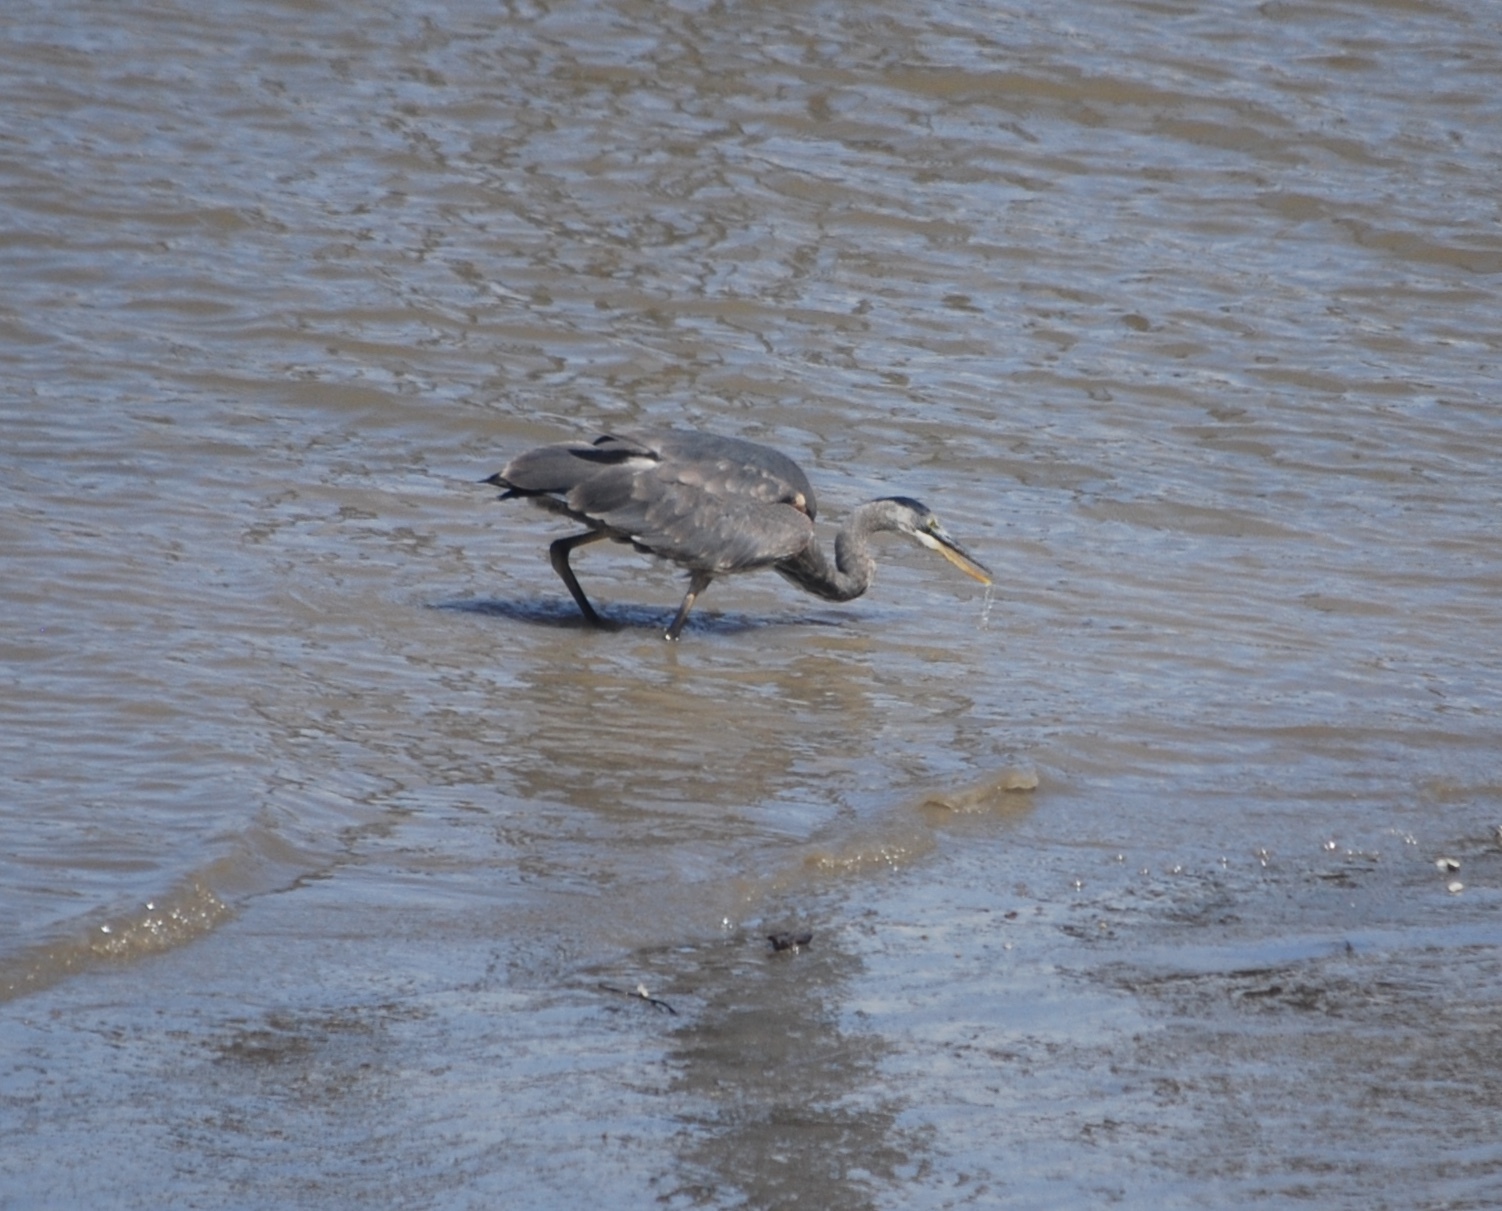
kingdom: Animalia
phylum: Chordata
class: Aves
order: Pelecaniformes
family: Ardeidae
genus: Ardea
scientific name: Ardea herodias
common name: Great blue heron
